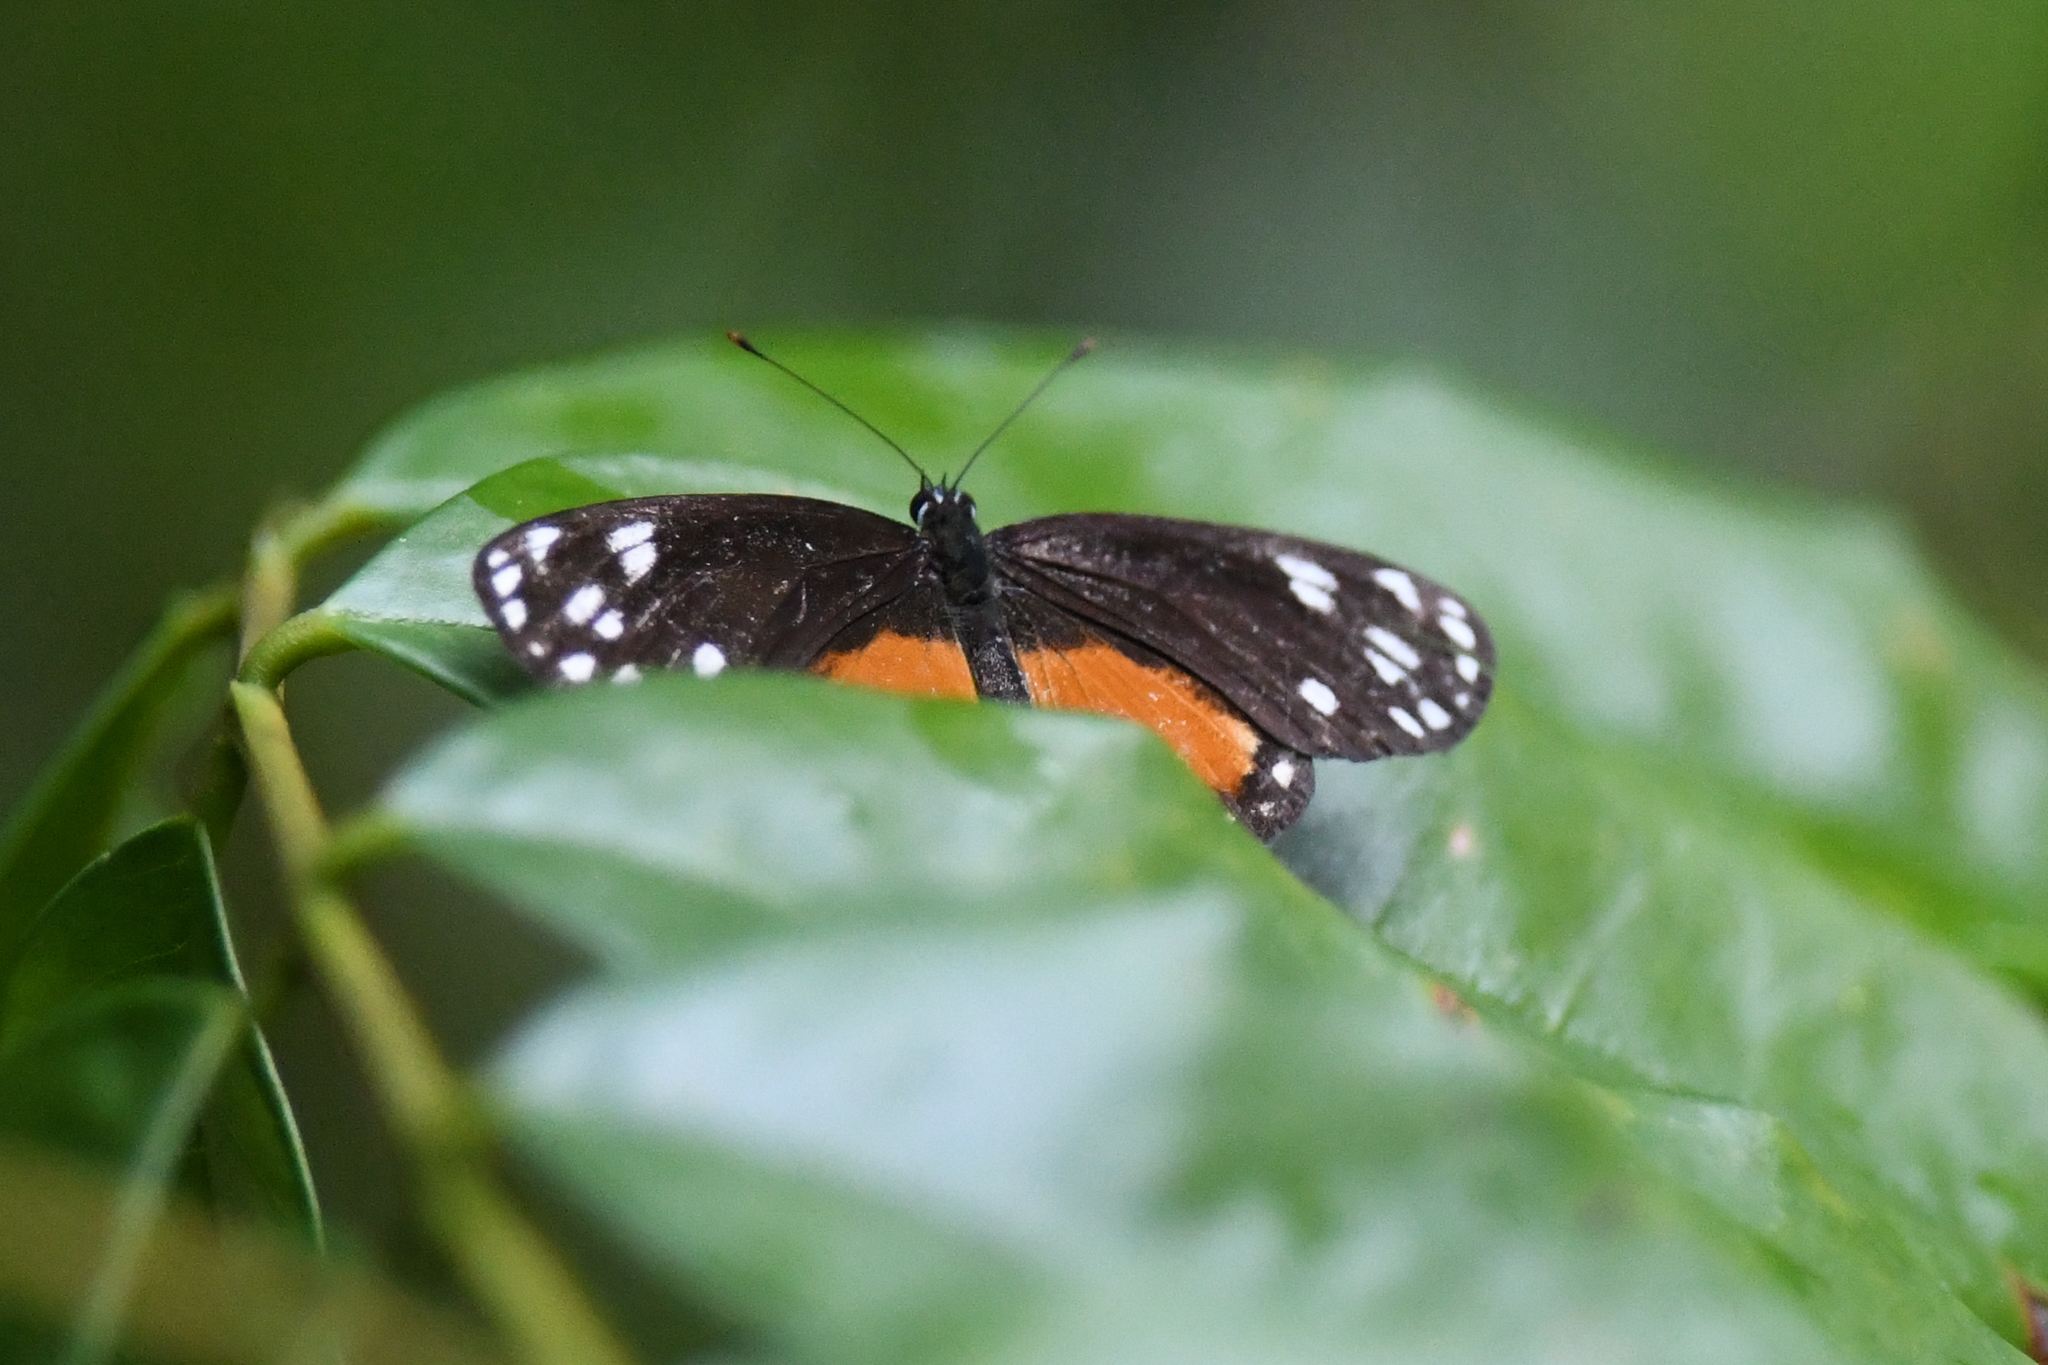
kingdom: Animalia
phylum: Arthropoda
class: Insecta
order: Lepidoptera
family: Nymphalidae
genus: Eresia
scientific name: Eresia emerantia
